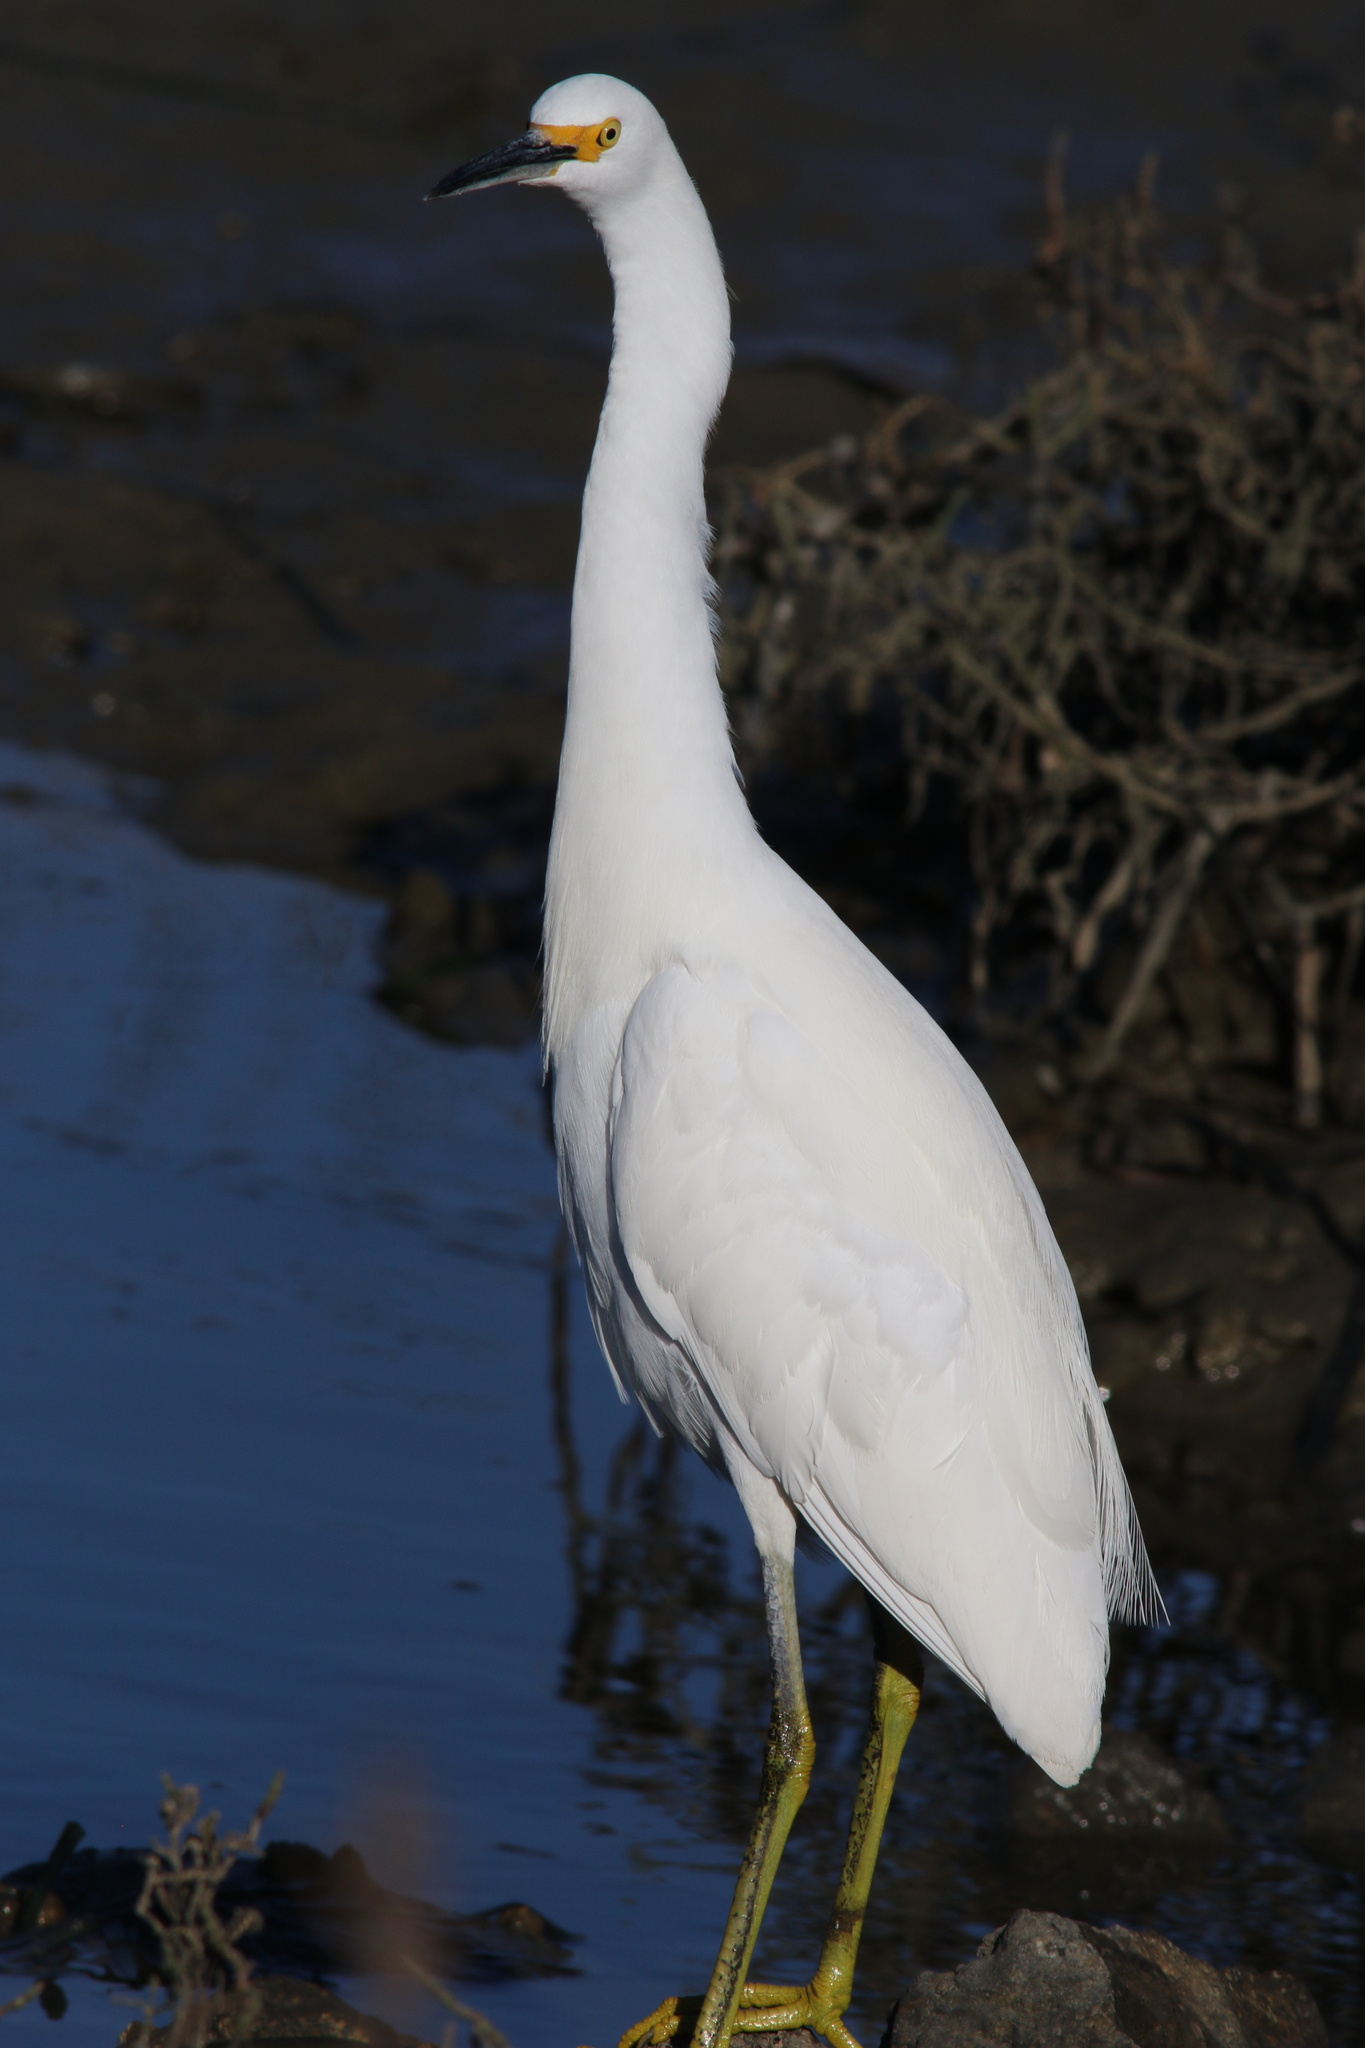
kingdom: Animalia
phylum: Chordata
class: Aves
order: Pelecaniformes
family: Ardeidae
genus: Egretta
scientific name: Egretta thula
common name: Snowy egret
